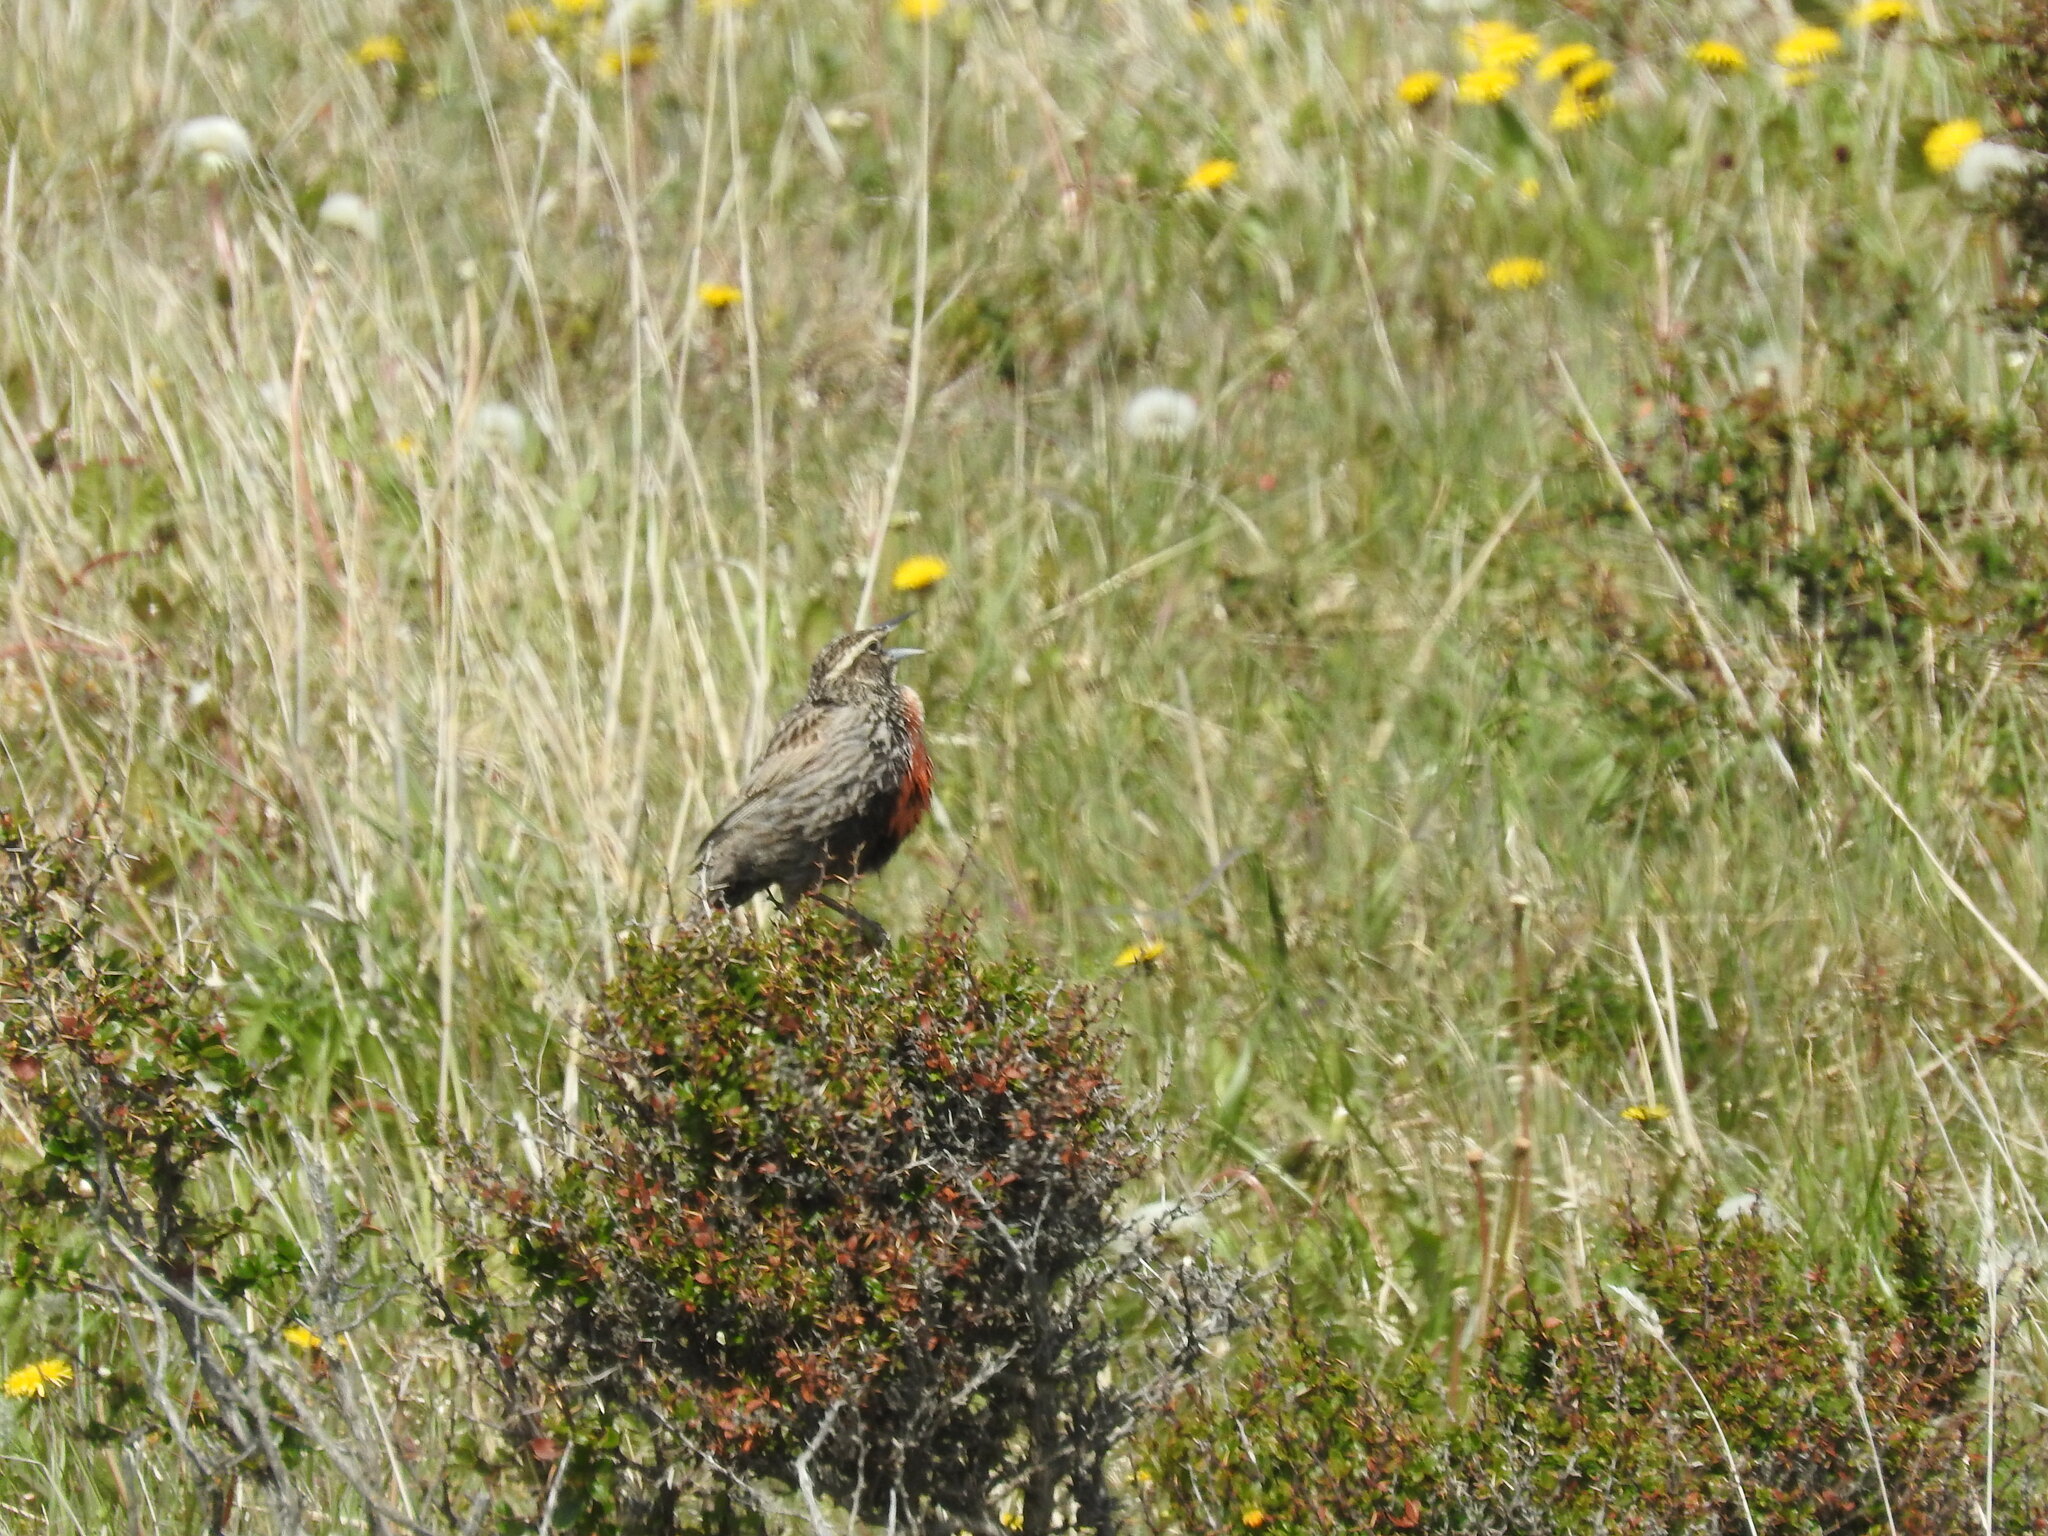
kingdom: Animalia
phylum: Chordata
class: Aves
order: Passeriformes
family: Icteridae
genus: Sturnella
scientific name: Sturnella loyca
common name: Long-tailed meadowlark
